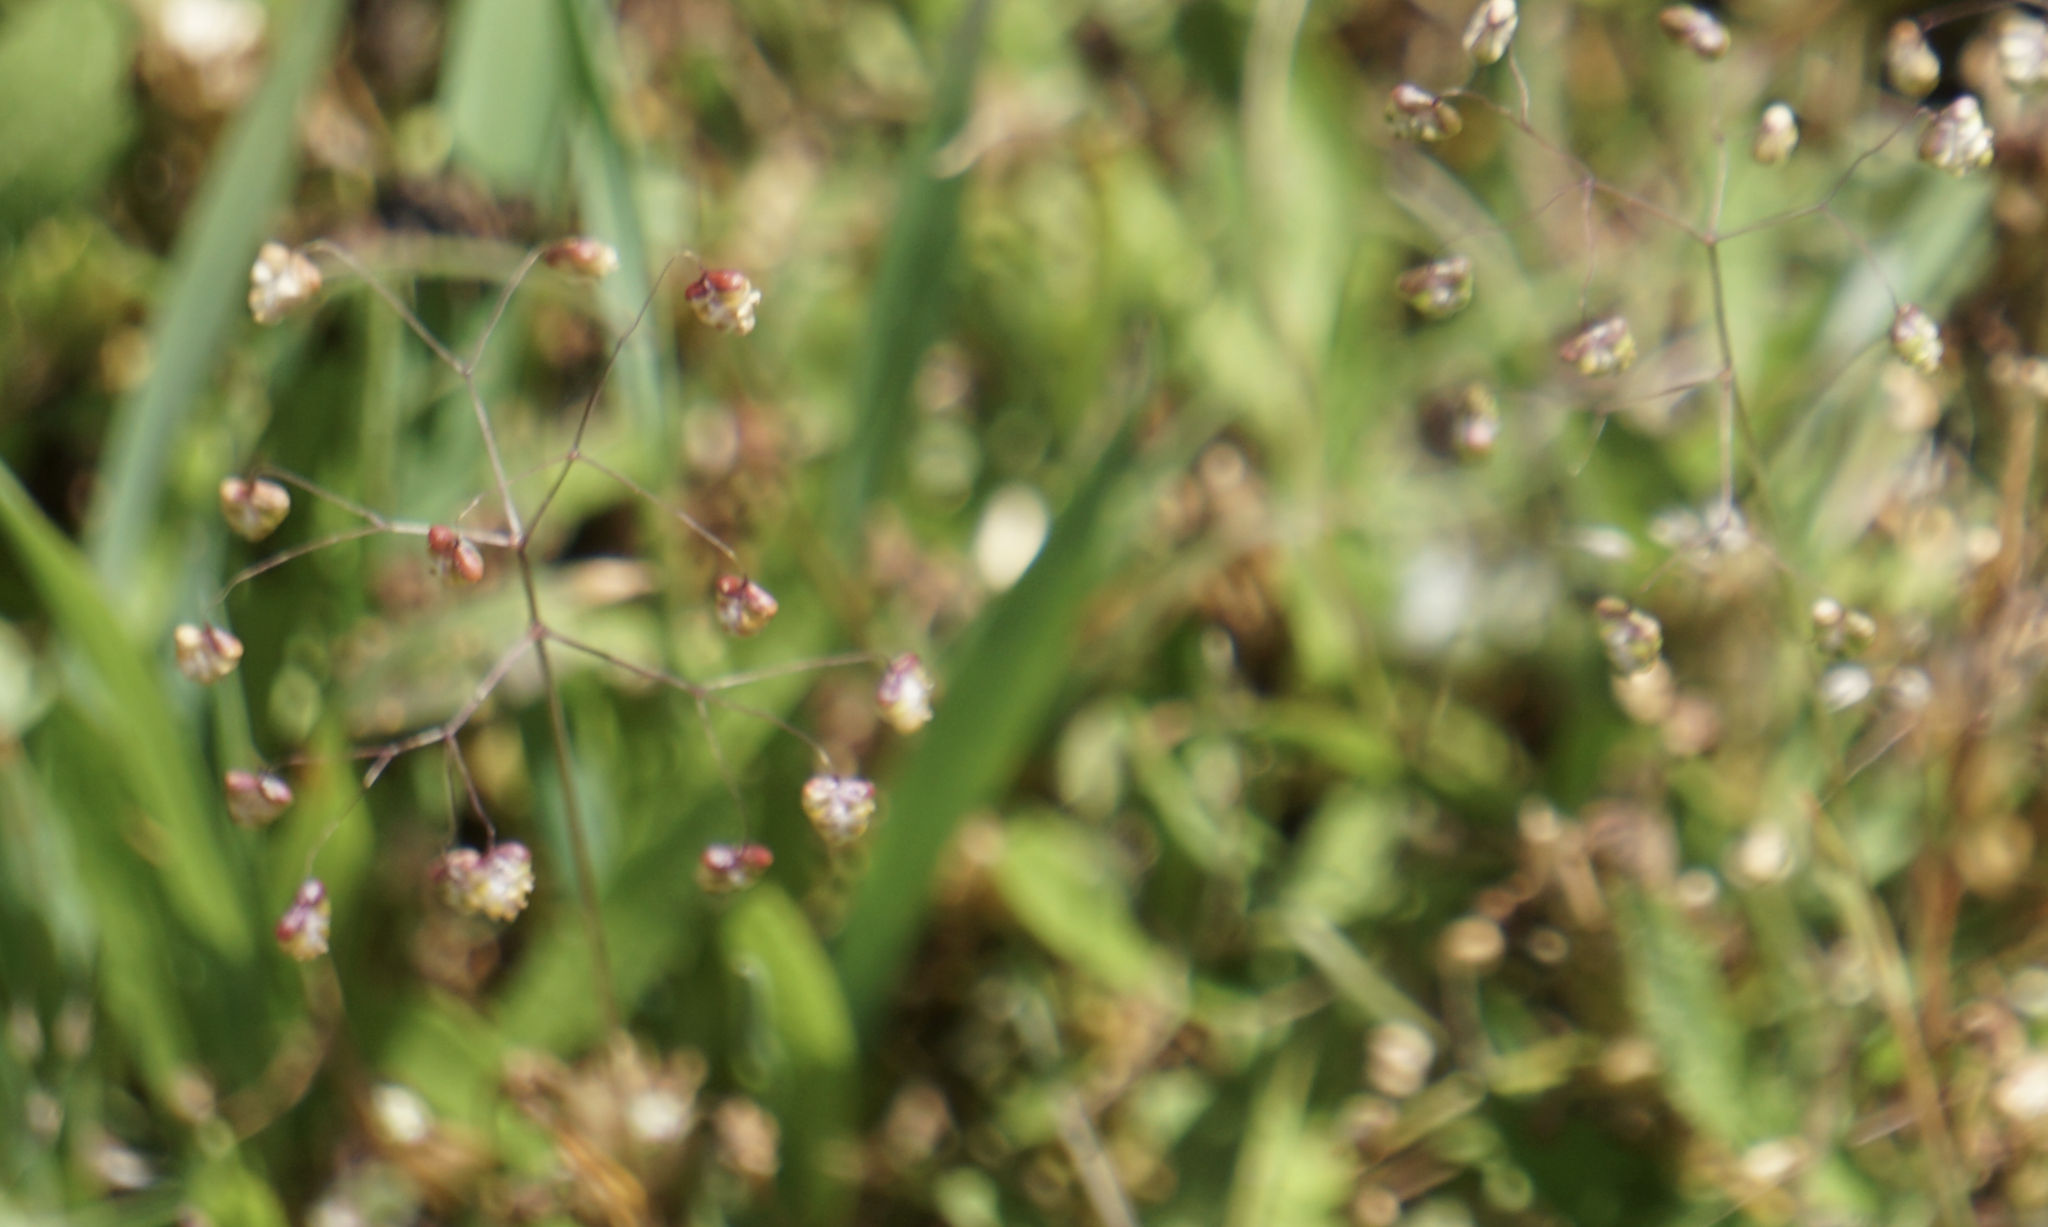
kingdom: Plantae
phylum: Tracheophyta
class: Liliopsida
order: Poales
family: Poaceae
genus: Briza
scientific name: Briza minor
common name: Lesser quaking-grass
